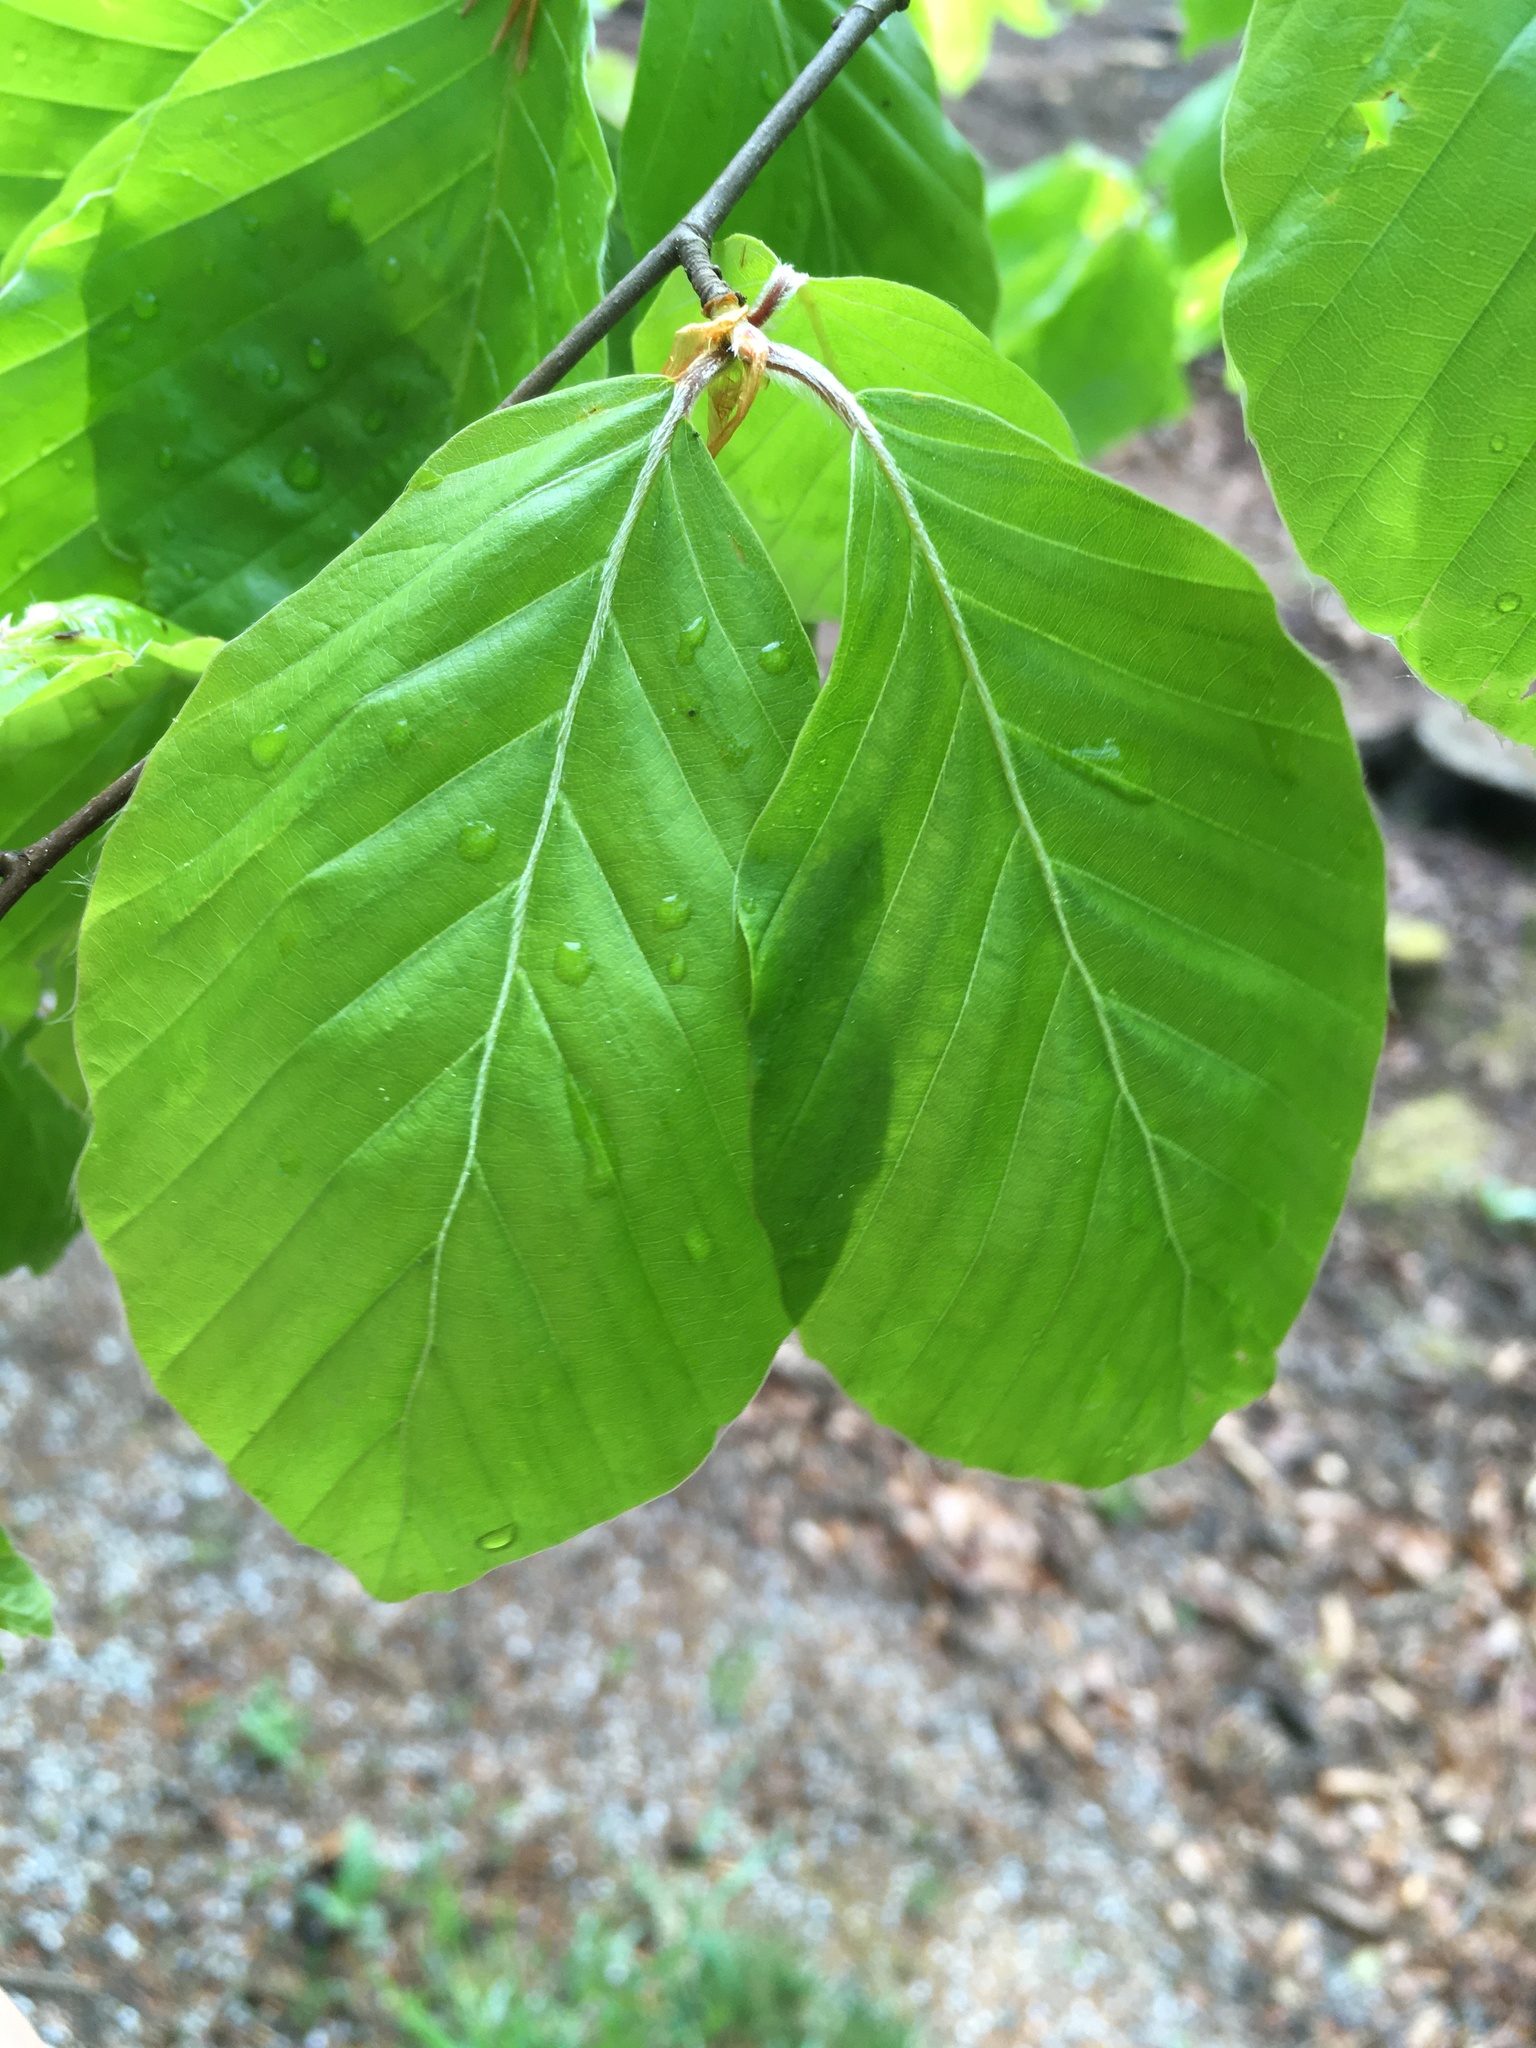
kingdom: Plantae
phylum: Tracheophyta
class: Magnoliopsida
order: Fagales
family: Fagaceae
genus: Fagus
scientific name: Fagus sylvatica
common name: Beech
